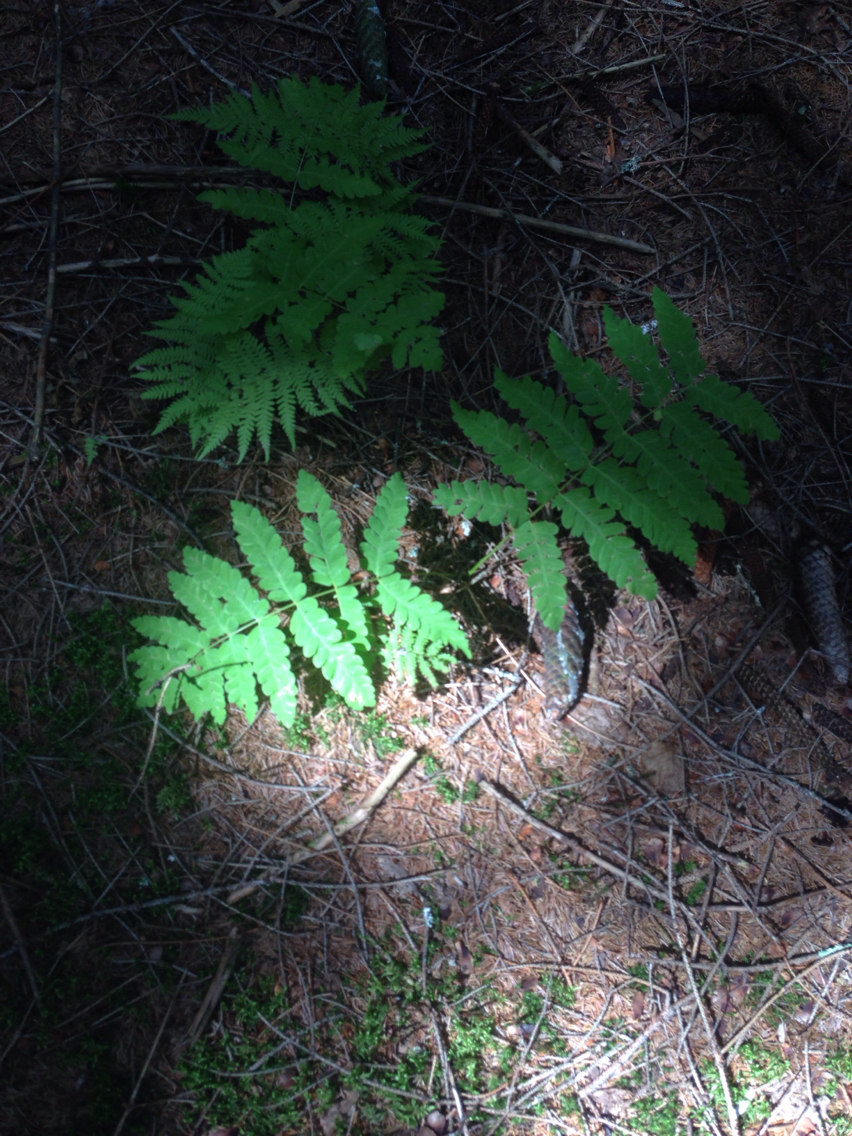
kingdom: Plantae
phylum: Tracheophyta
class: Polypodiopsida
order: Polypodiales
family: Onocleaceae
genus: Onoclea
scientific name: Onoclea sensibilis
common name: Sensitive fern
